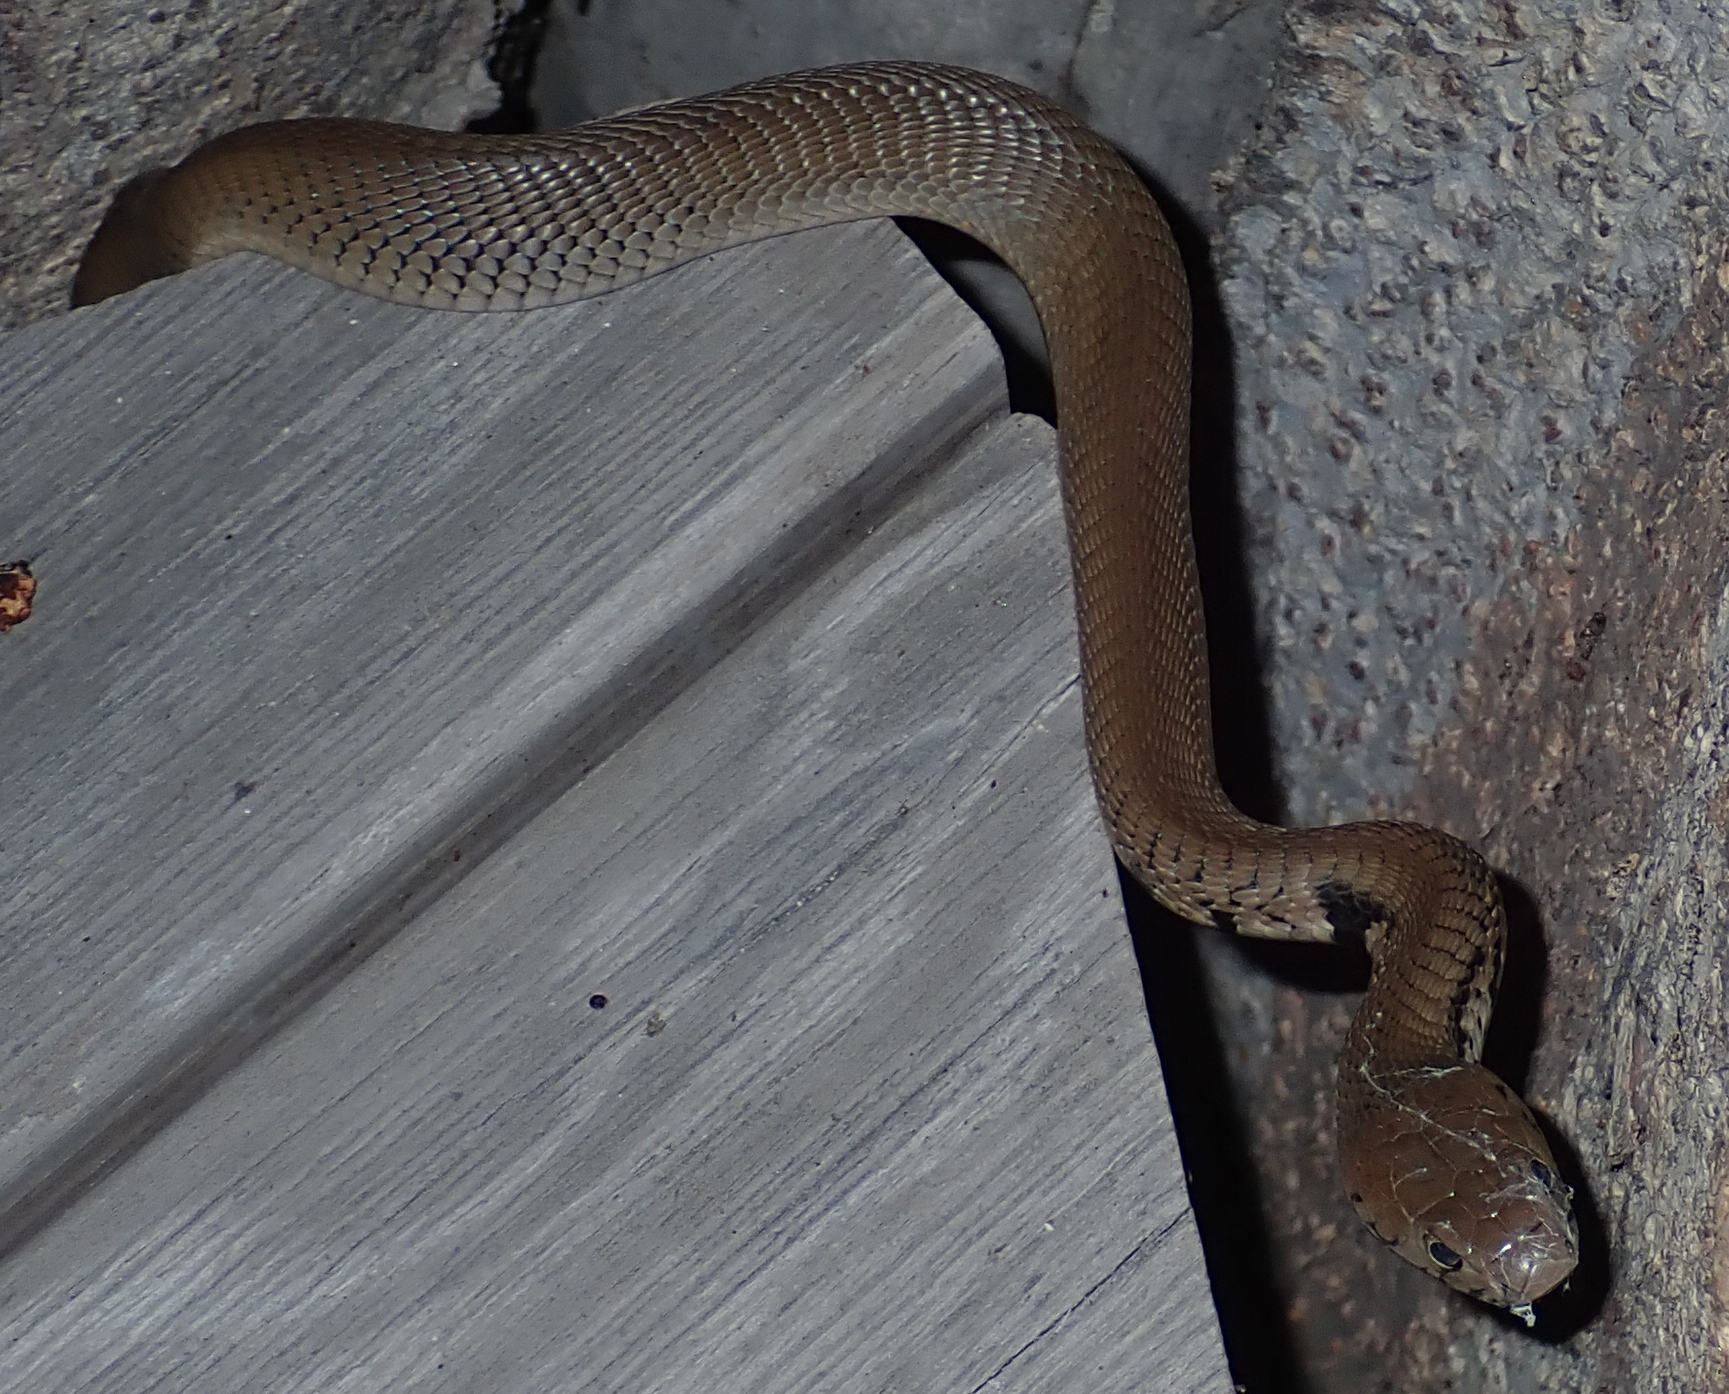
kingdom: Animalia
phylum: Chordata
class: Squamata
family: Elapidae
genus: Naja
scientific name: Naja mossambica
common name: Mozambique spitting cobra
